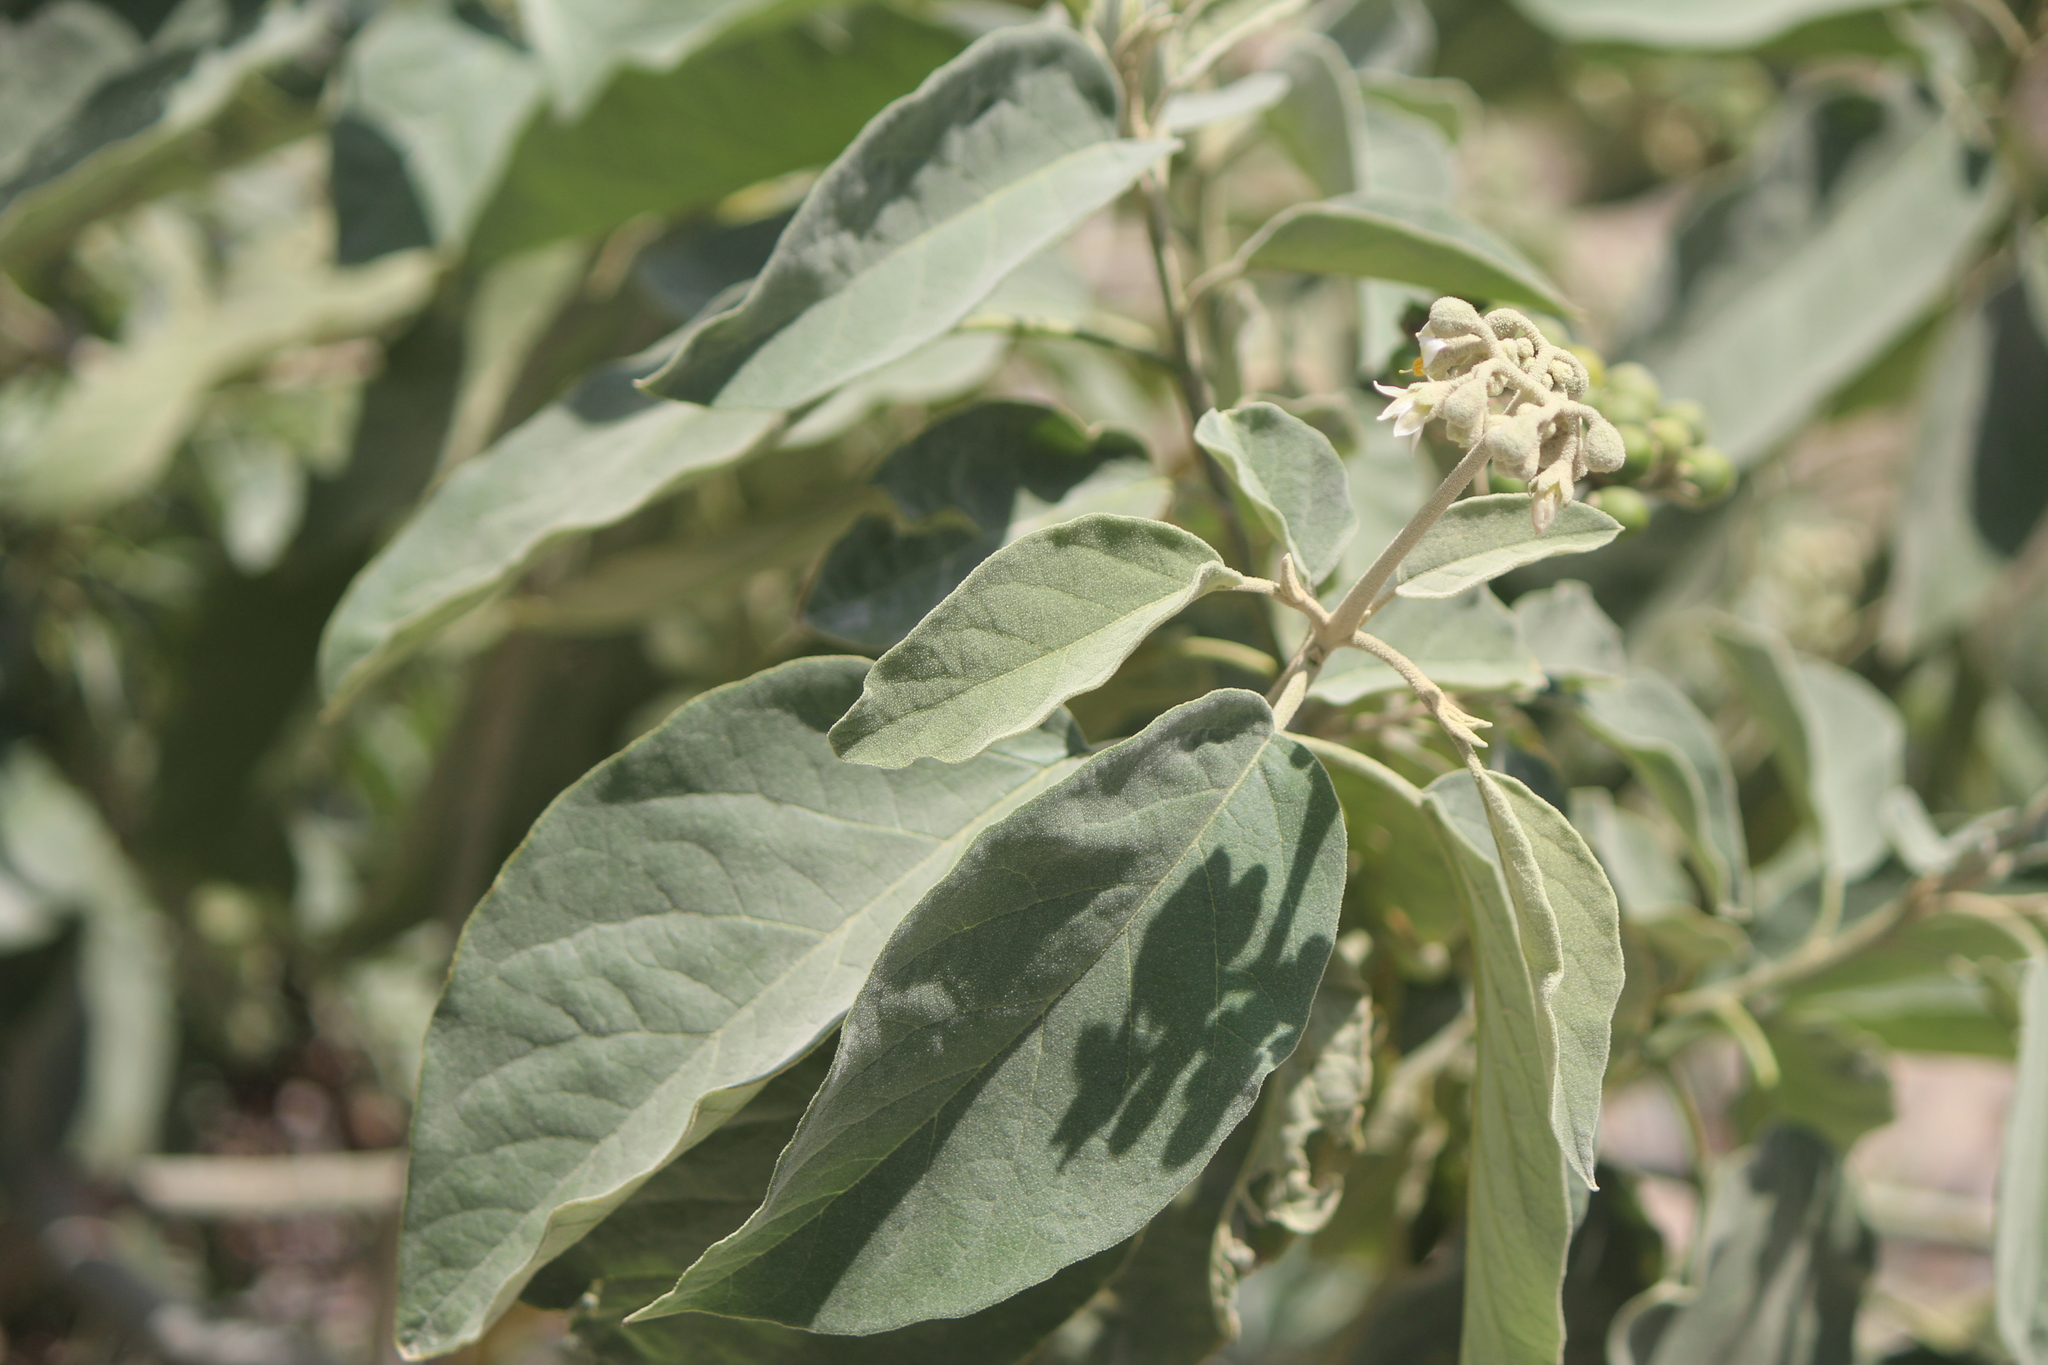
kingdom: Plantae
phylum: Tracheophyta
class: Magnoliopsida
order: Solanales
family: Solanaceae
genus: Solanum
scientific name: Solanum erianthum
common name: Tobacco-tree
